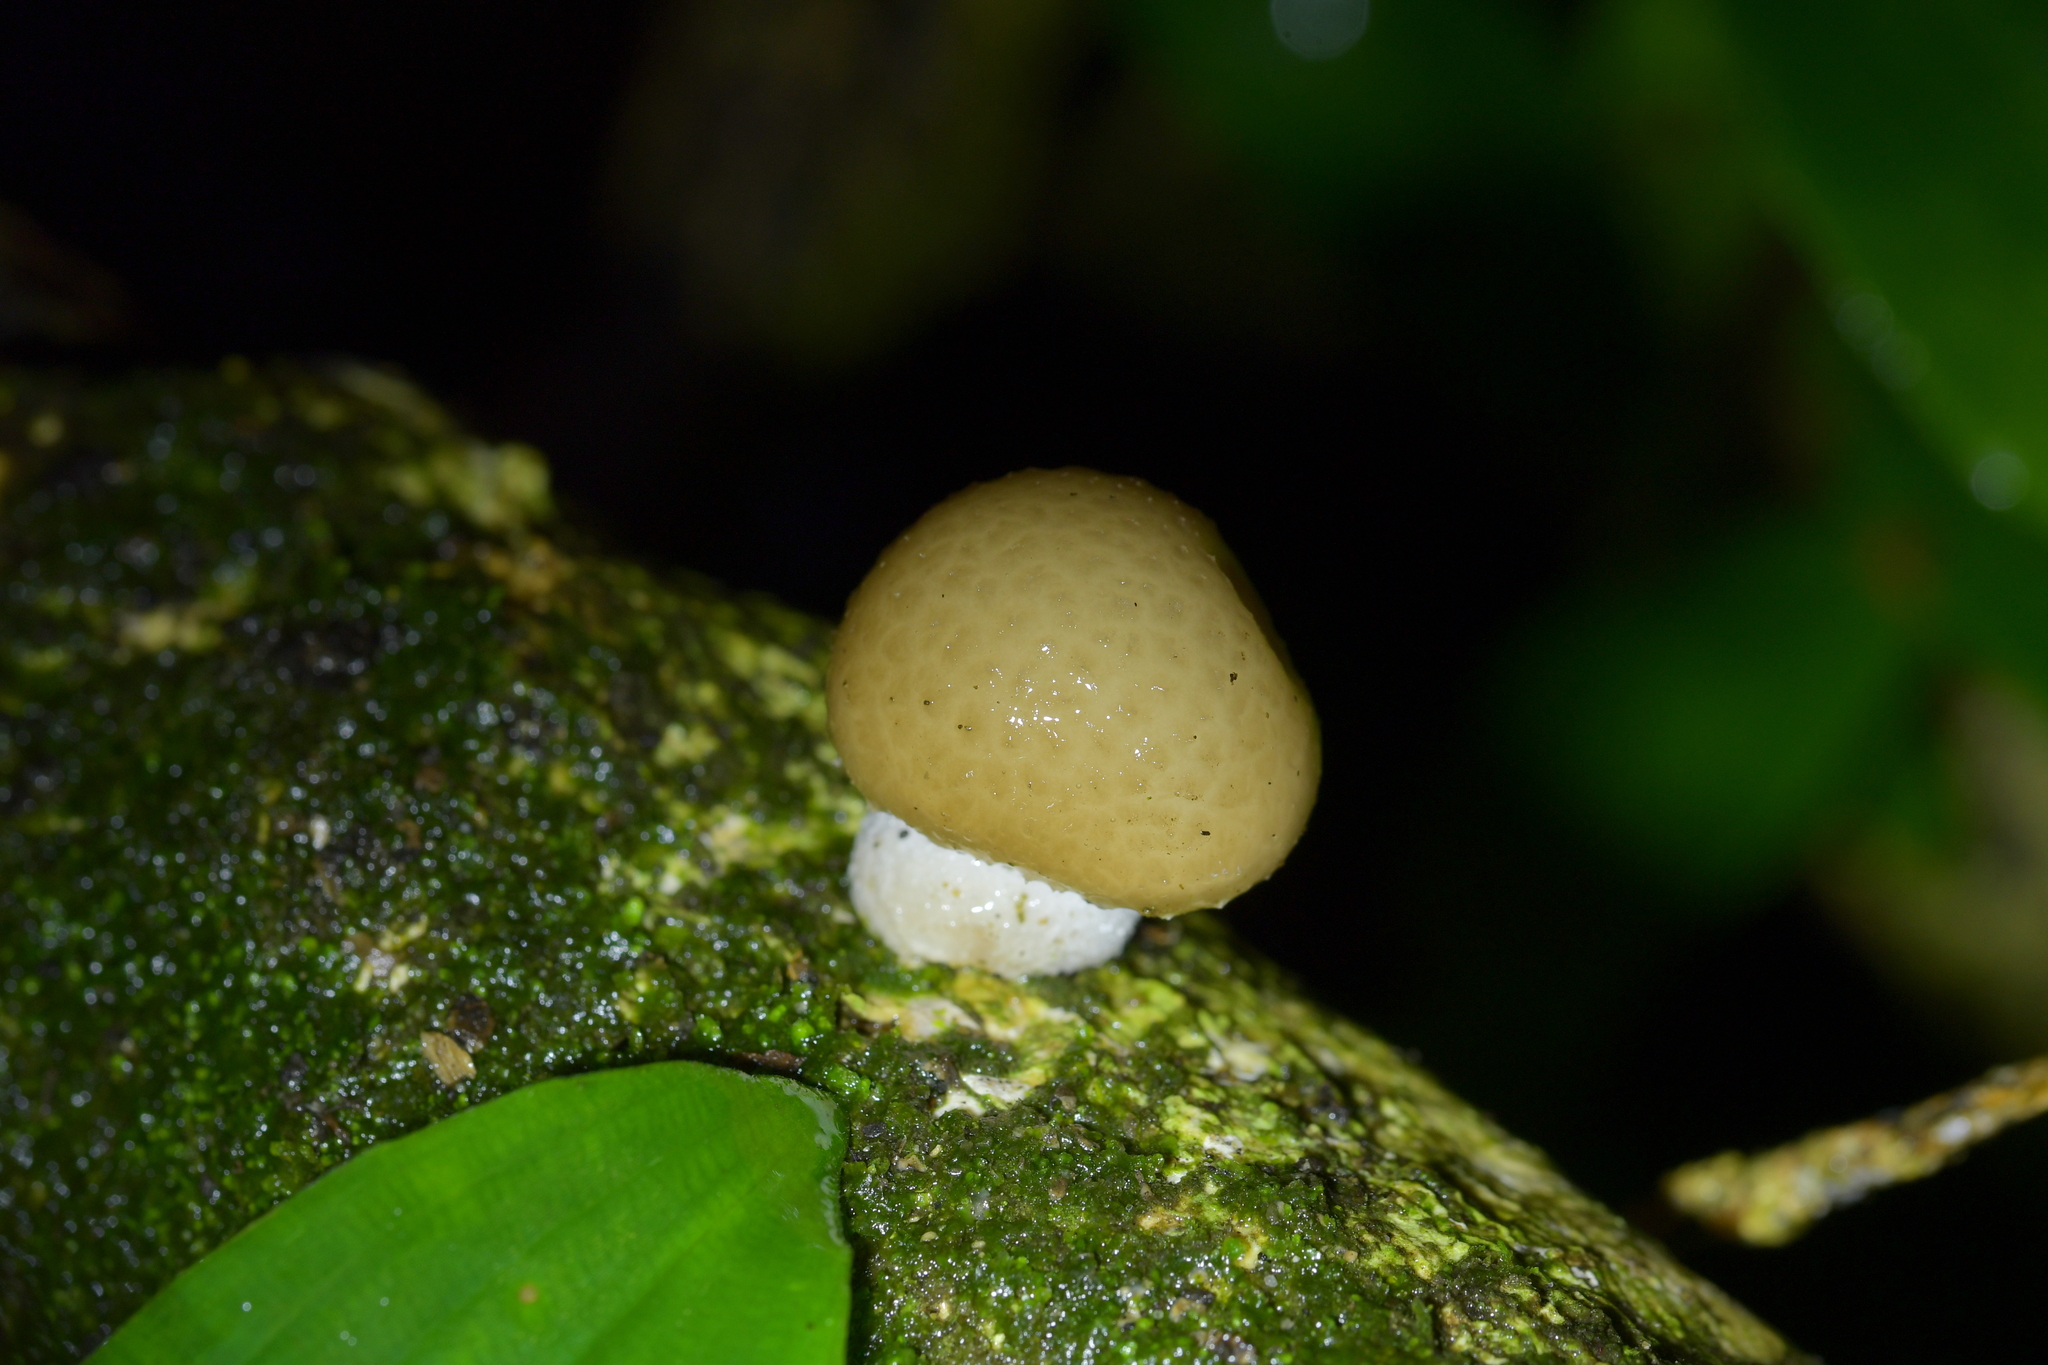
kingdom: Fungi
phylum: Basidiomycota
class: Agaricomycetes
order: Agaricales
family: Physalacriaceae
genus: Oudemansiella
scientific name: Oudemansiella australis
